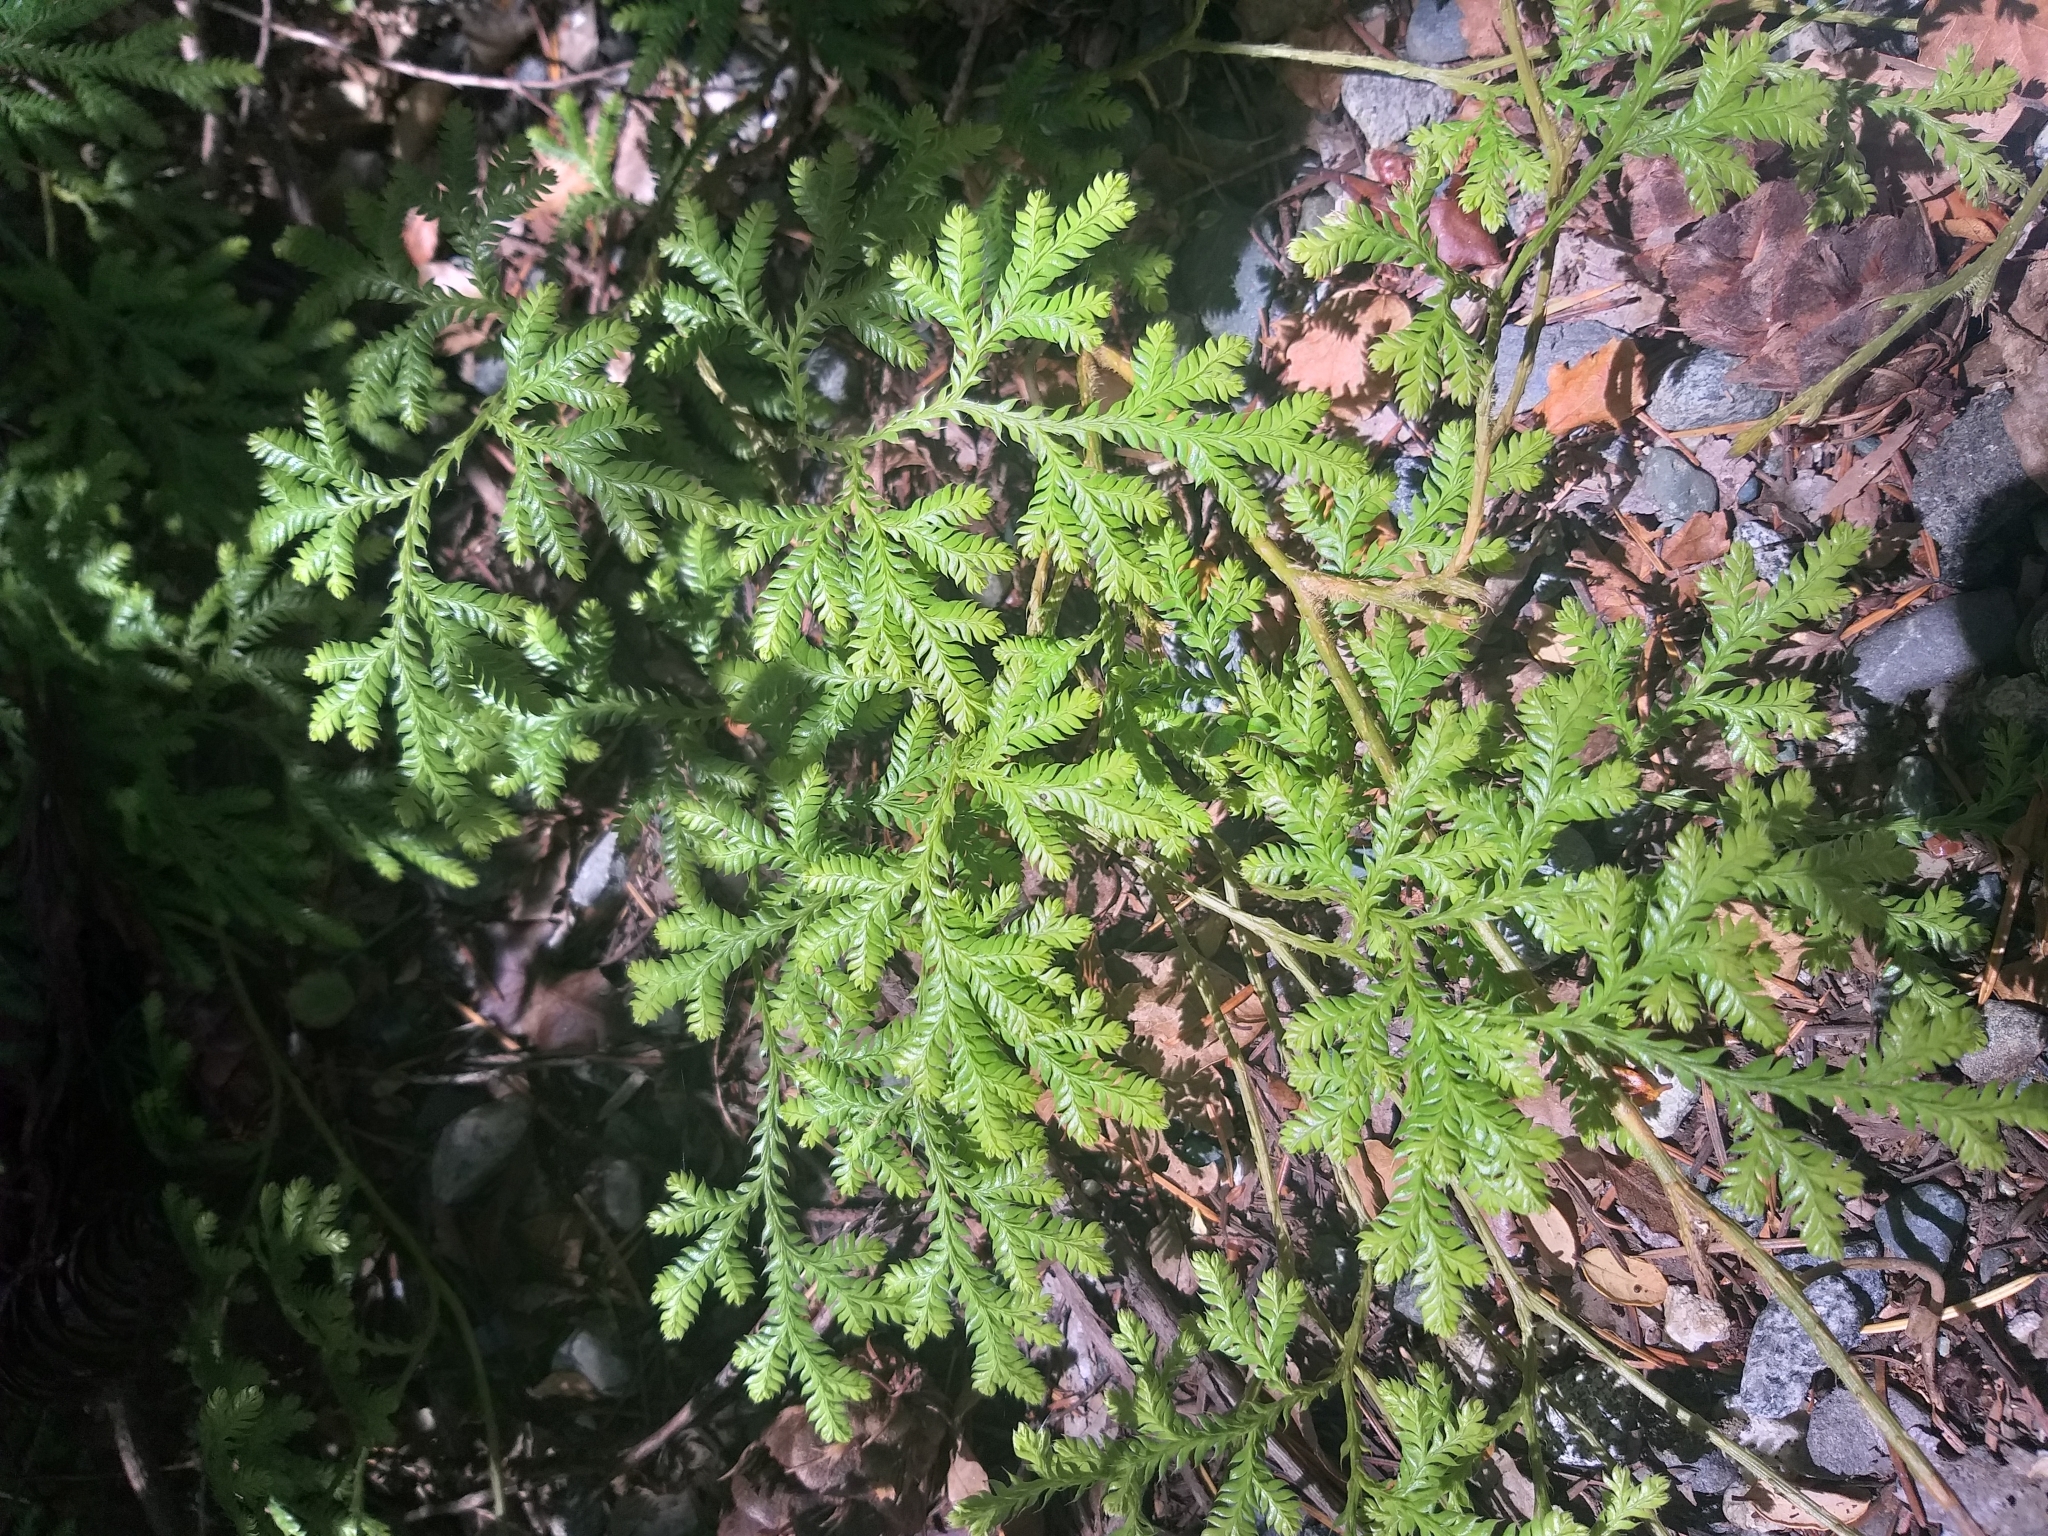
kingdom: Plantae
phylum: Tracheophyta
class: Lycopodiopsida
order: Lycopodiales
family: Lycopodiaceae
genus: Lycopodium
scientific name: Lycopodium volubile
